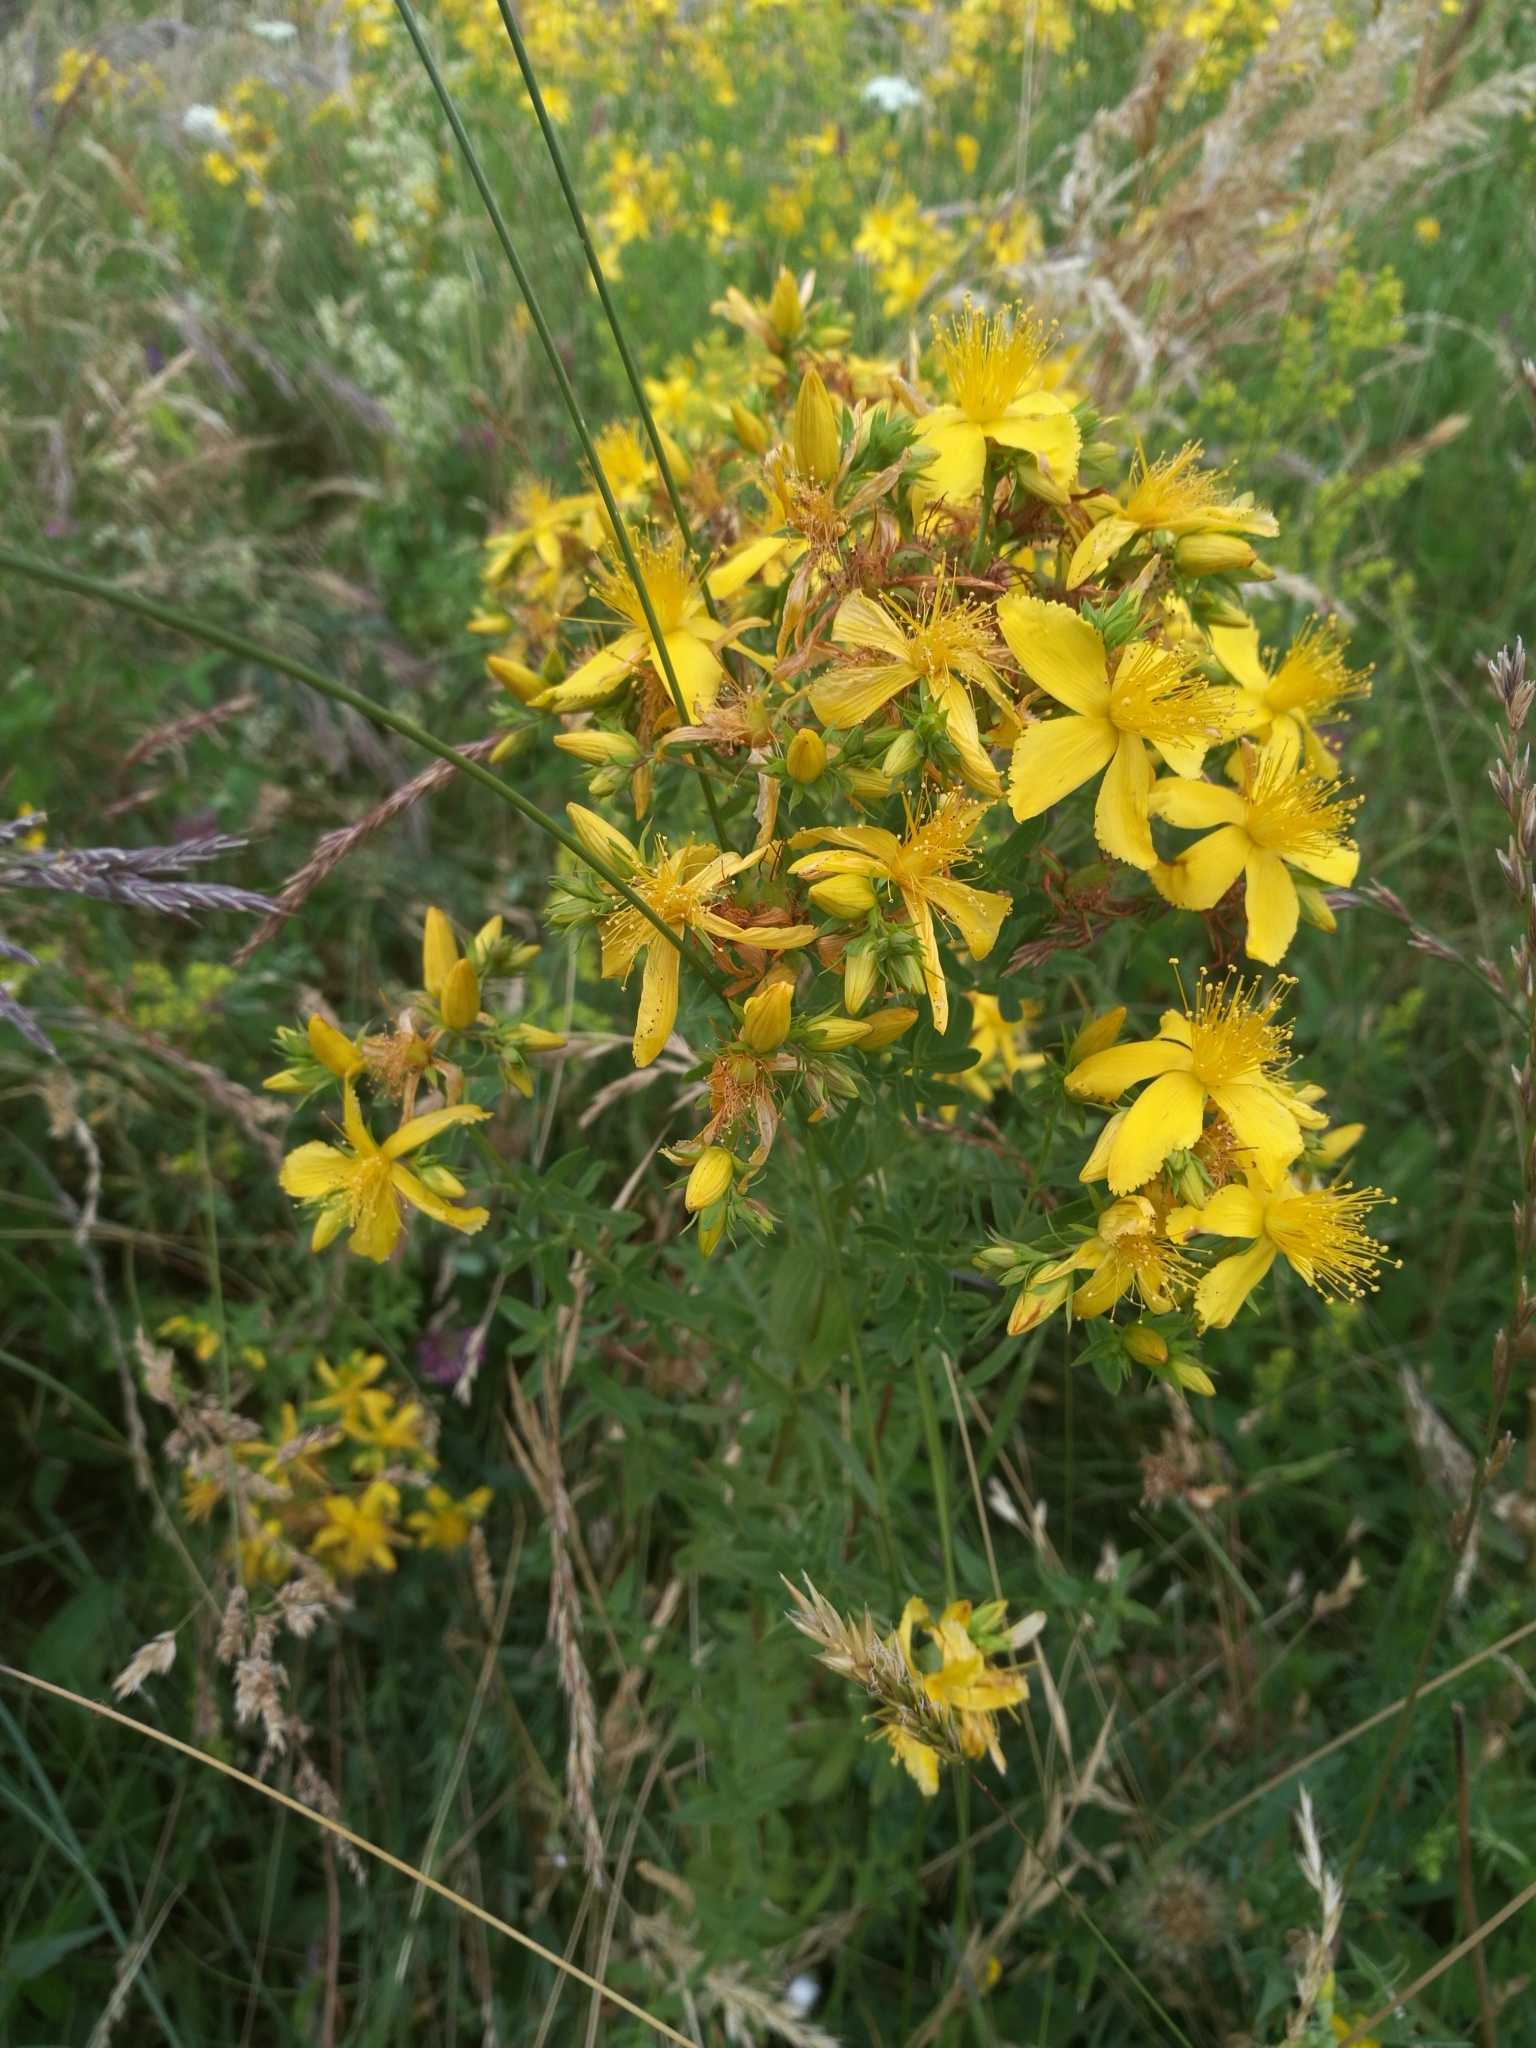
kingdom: Plantae
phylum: Tracheophyta
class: Magnoliopsida
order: Malpighiales
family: Hypericaceae
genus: Hypericum
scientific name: Hypericum perforatum
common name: Common st. johnswort
